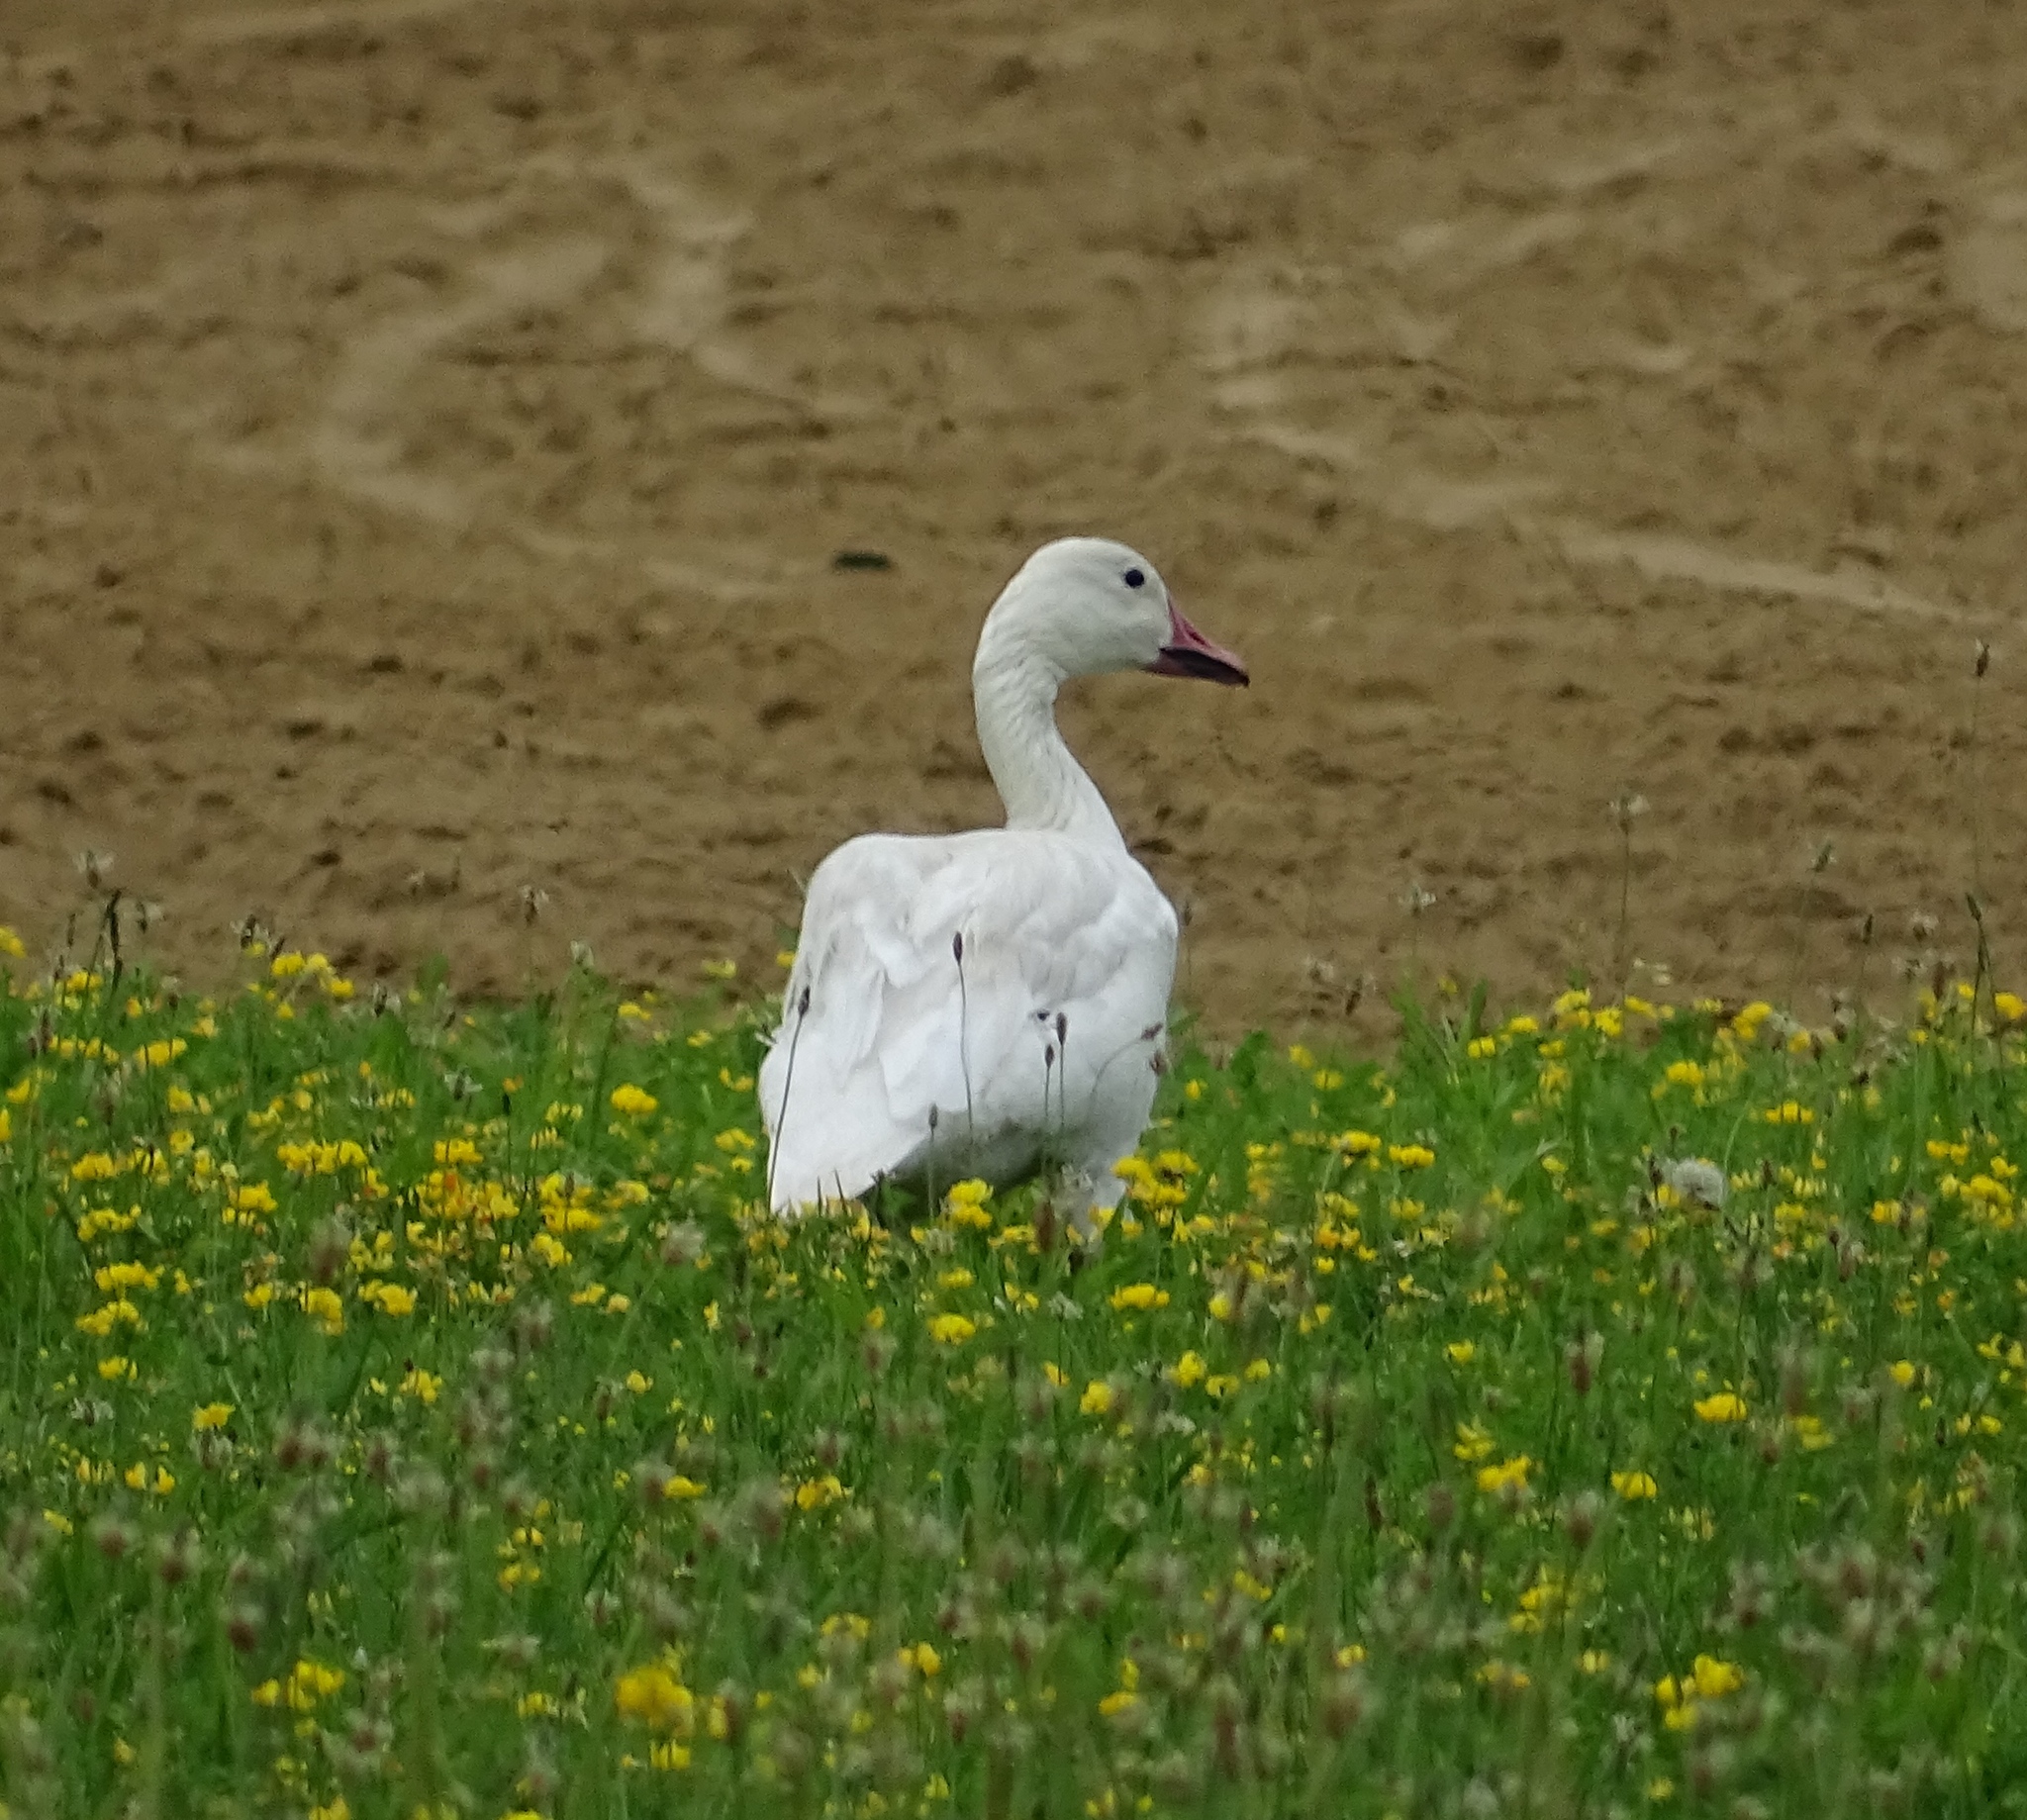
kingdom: Animalia
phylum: Chordata
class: Aves
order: Anseriformes
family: Anatidae
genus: Anser
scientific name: Anser caerulescens
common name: Snow goose
